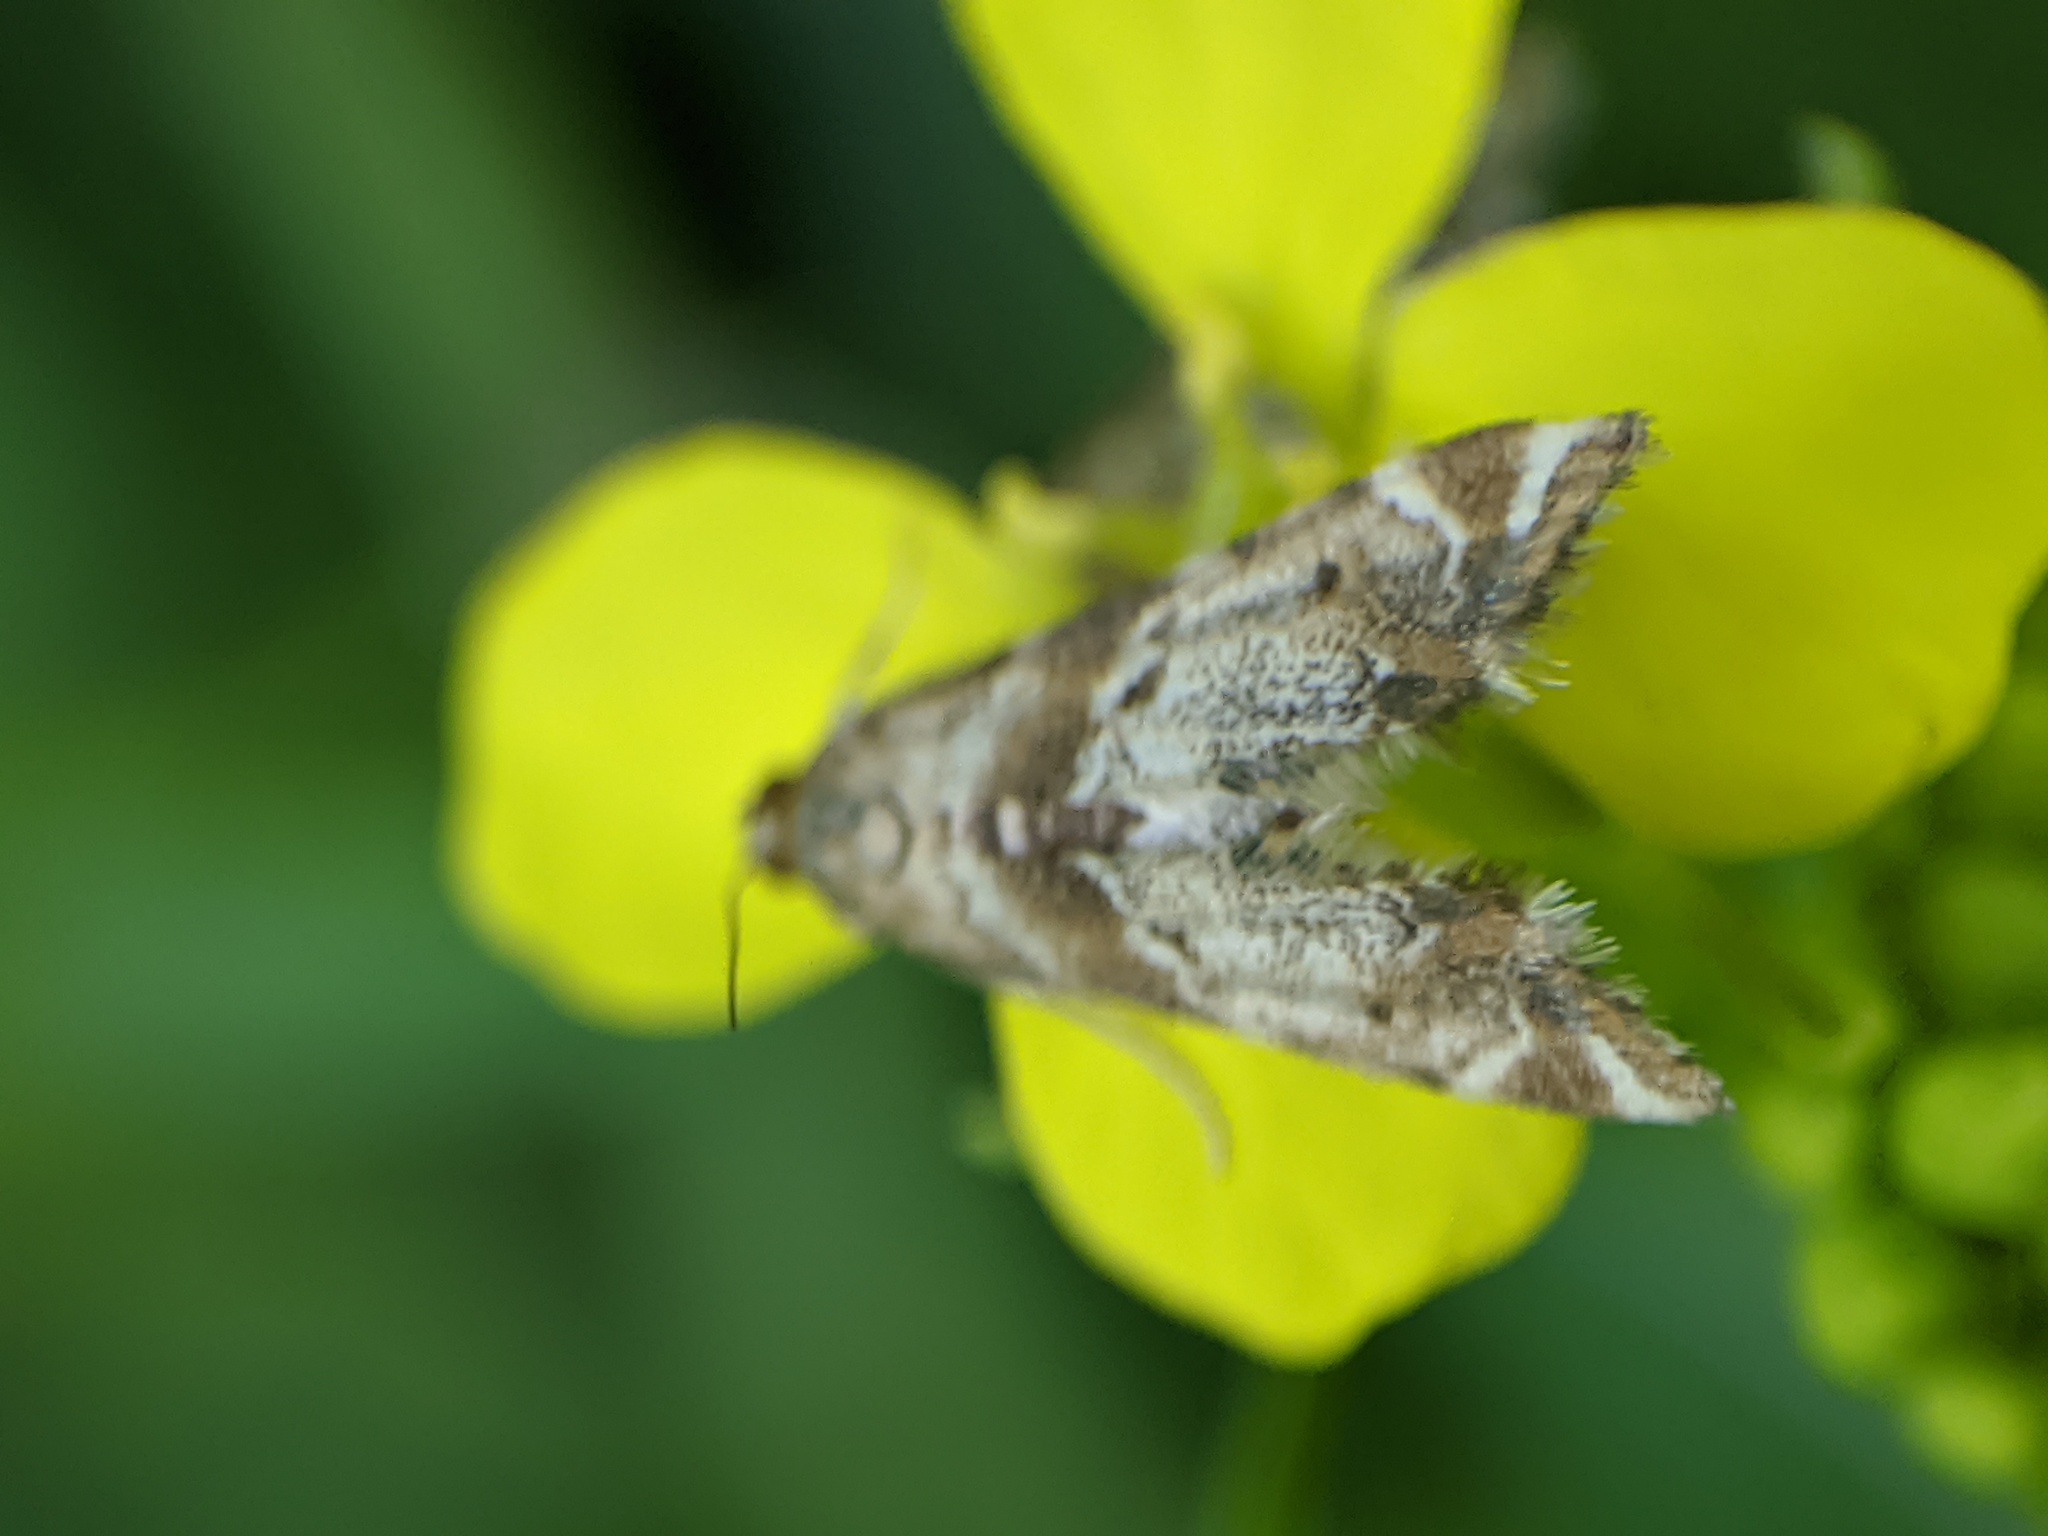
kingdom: Animalia
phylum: Arthropoda
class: Insecta
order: Lepidoptera
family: Crambidae
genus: Petrophila
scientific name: Petrophila fulicalis
